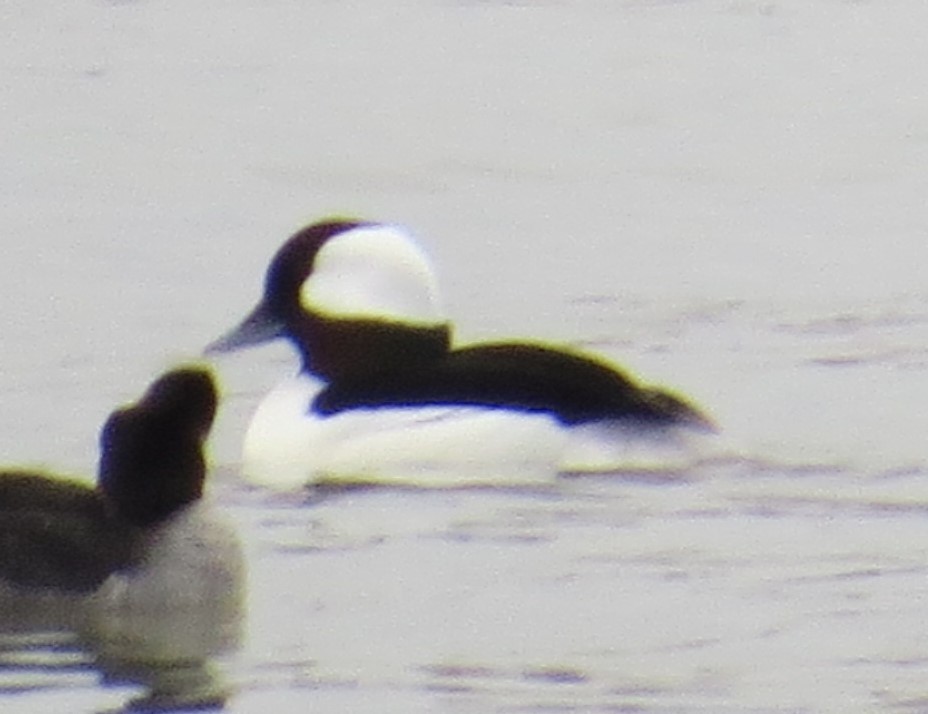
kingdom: Animalia
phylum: Chordata
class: Aves
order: Anseriformes
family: Anatidae
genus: Bucephala
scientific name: Bucephala albeola
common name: Bufflehead
